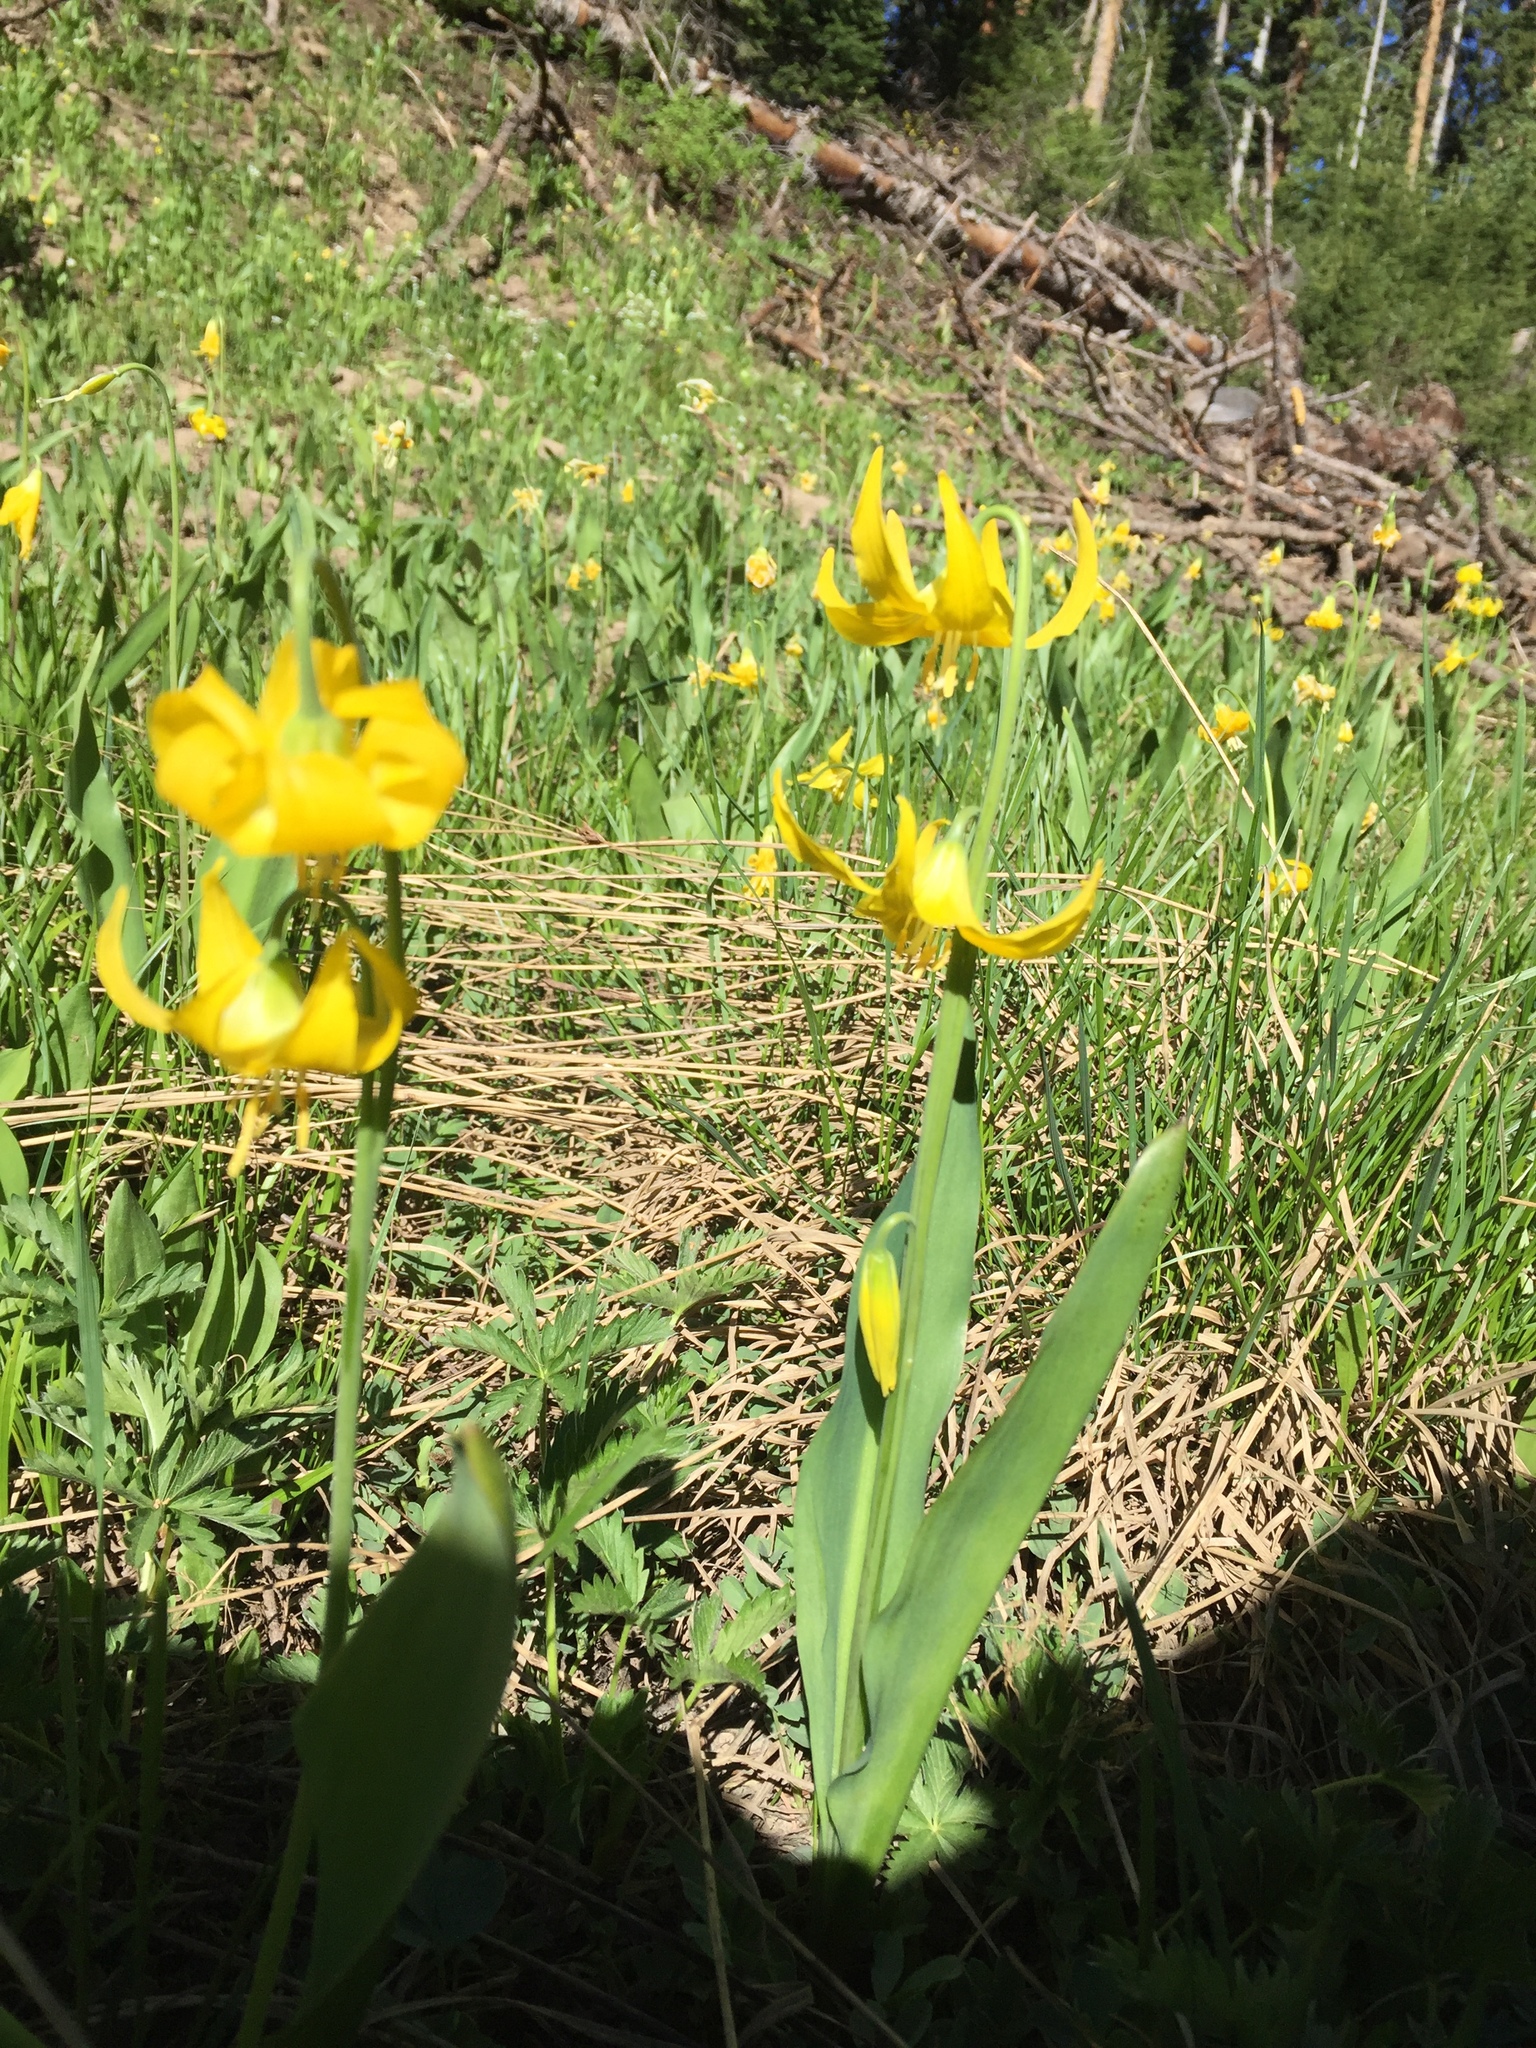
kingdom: Plantae
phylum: Tracheophyta
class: Liliopsida
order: Liliales
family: Liliaceae
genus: Erythronium
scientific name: Erythronium grandiflorum
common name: Avalanche-lily
